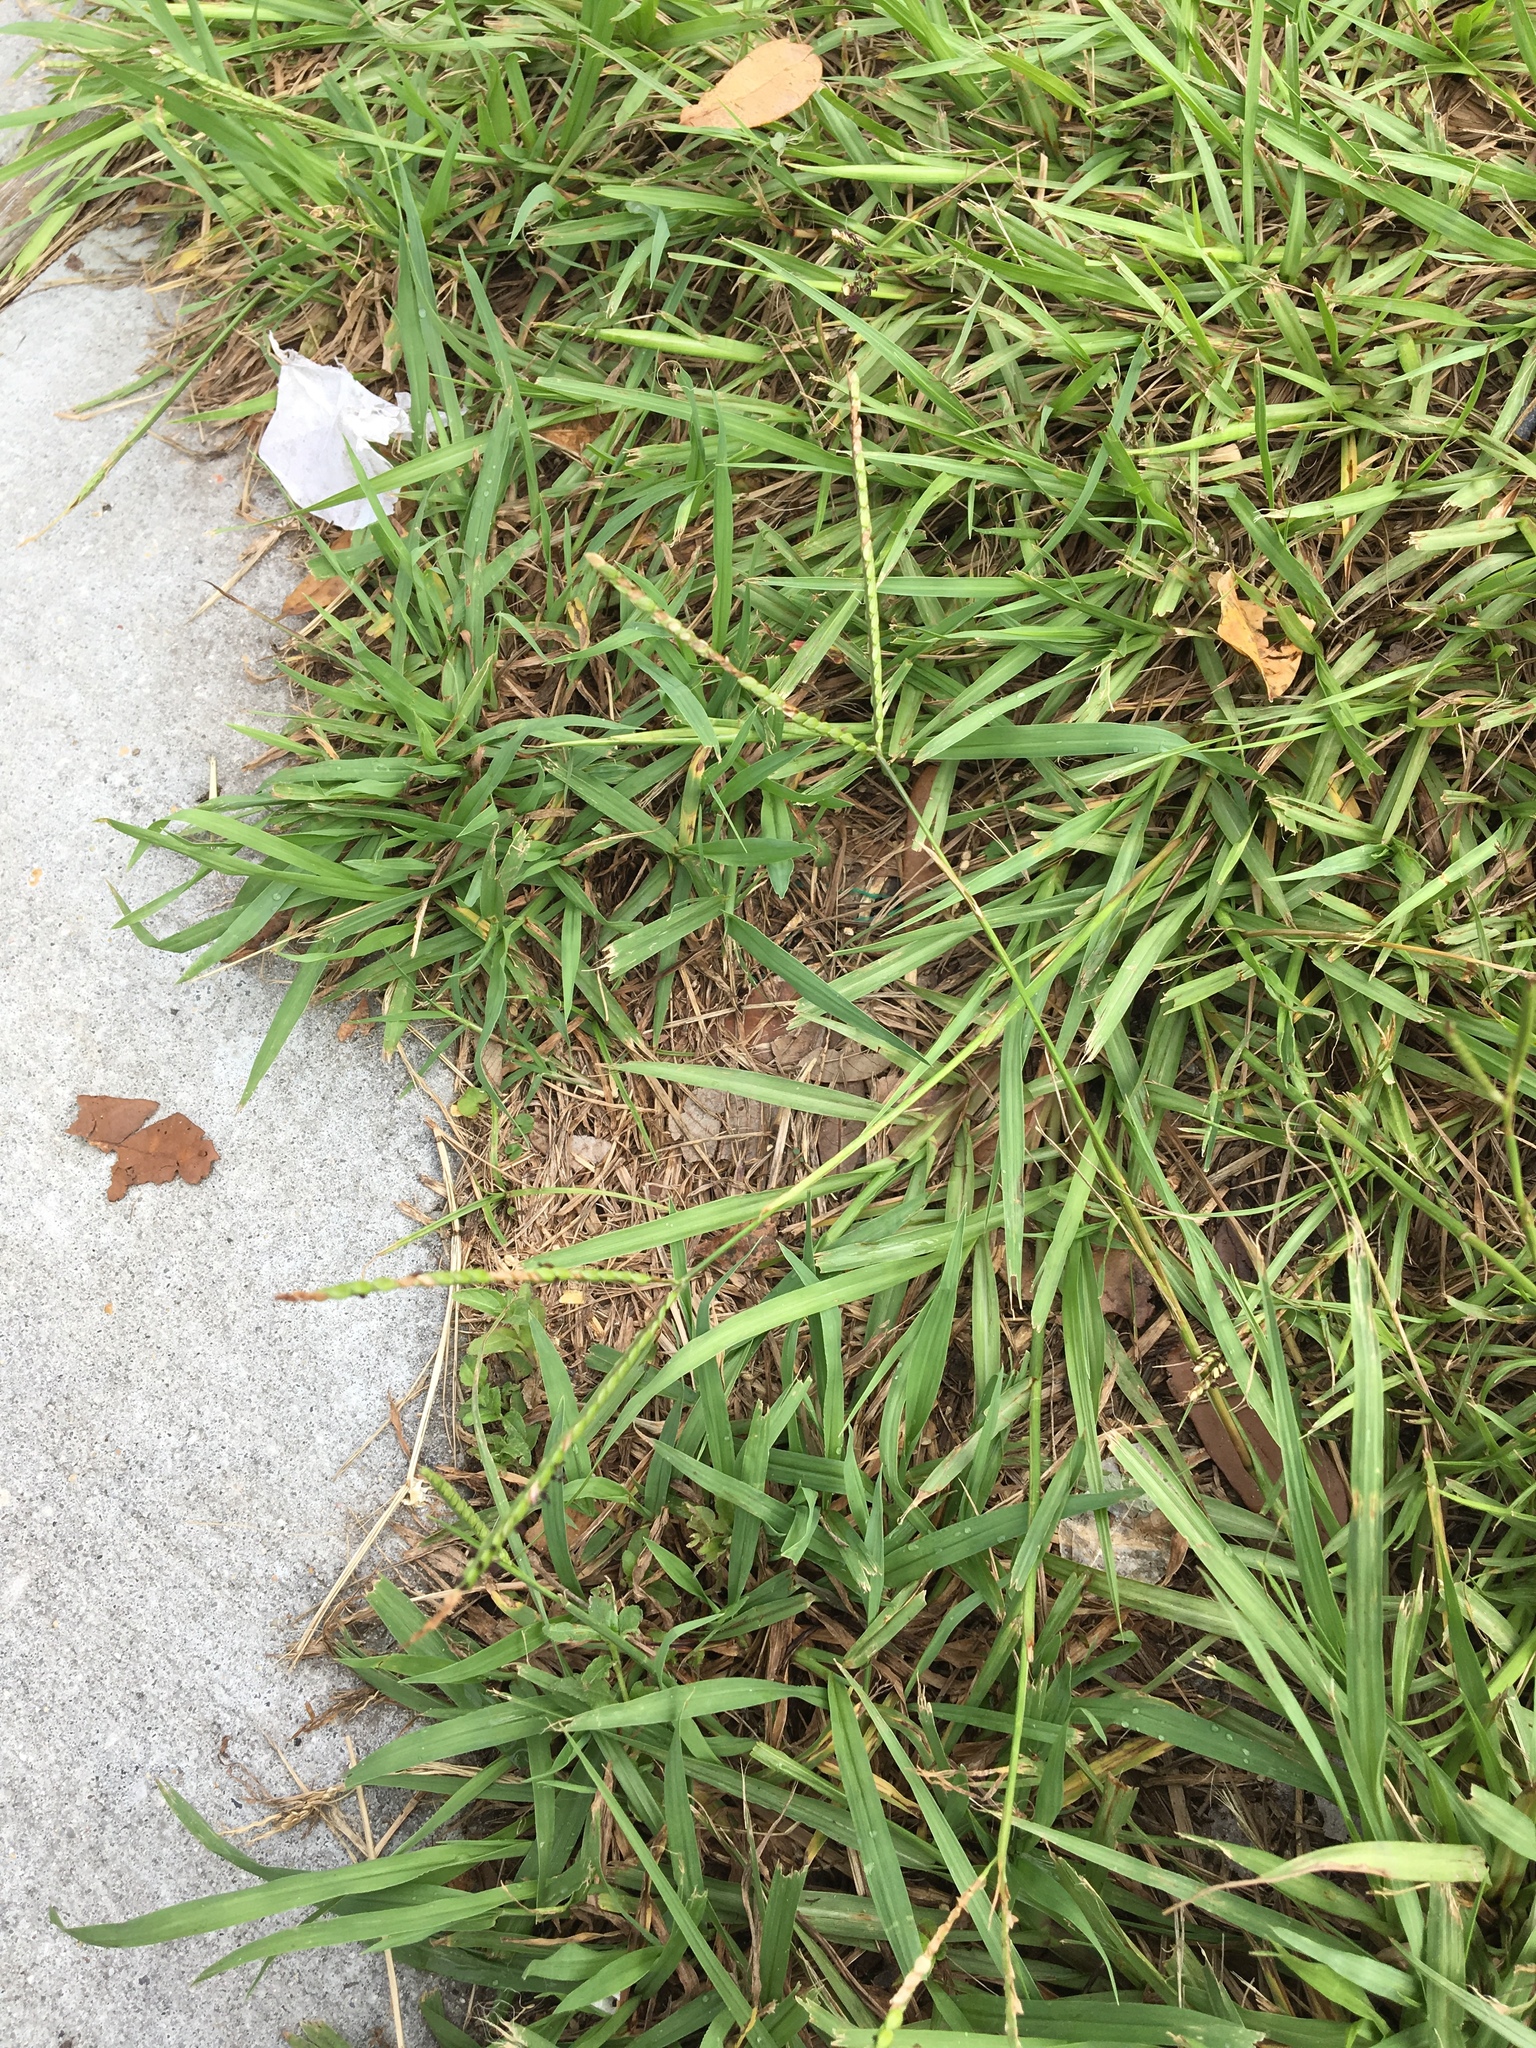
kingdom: Plantae
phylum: Tracheophyta
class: Liliopsida
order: Poales
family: Poaceae
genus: Paspalum
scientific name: Paspalum notatum
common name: Bahiagrass
